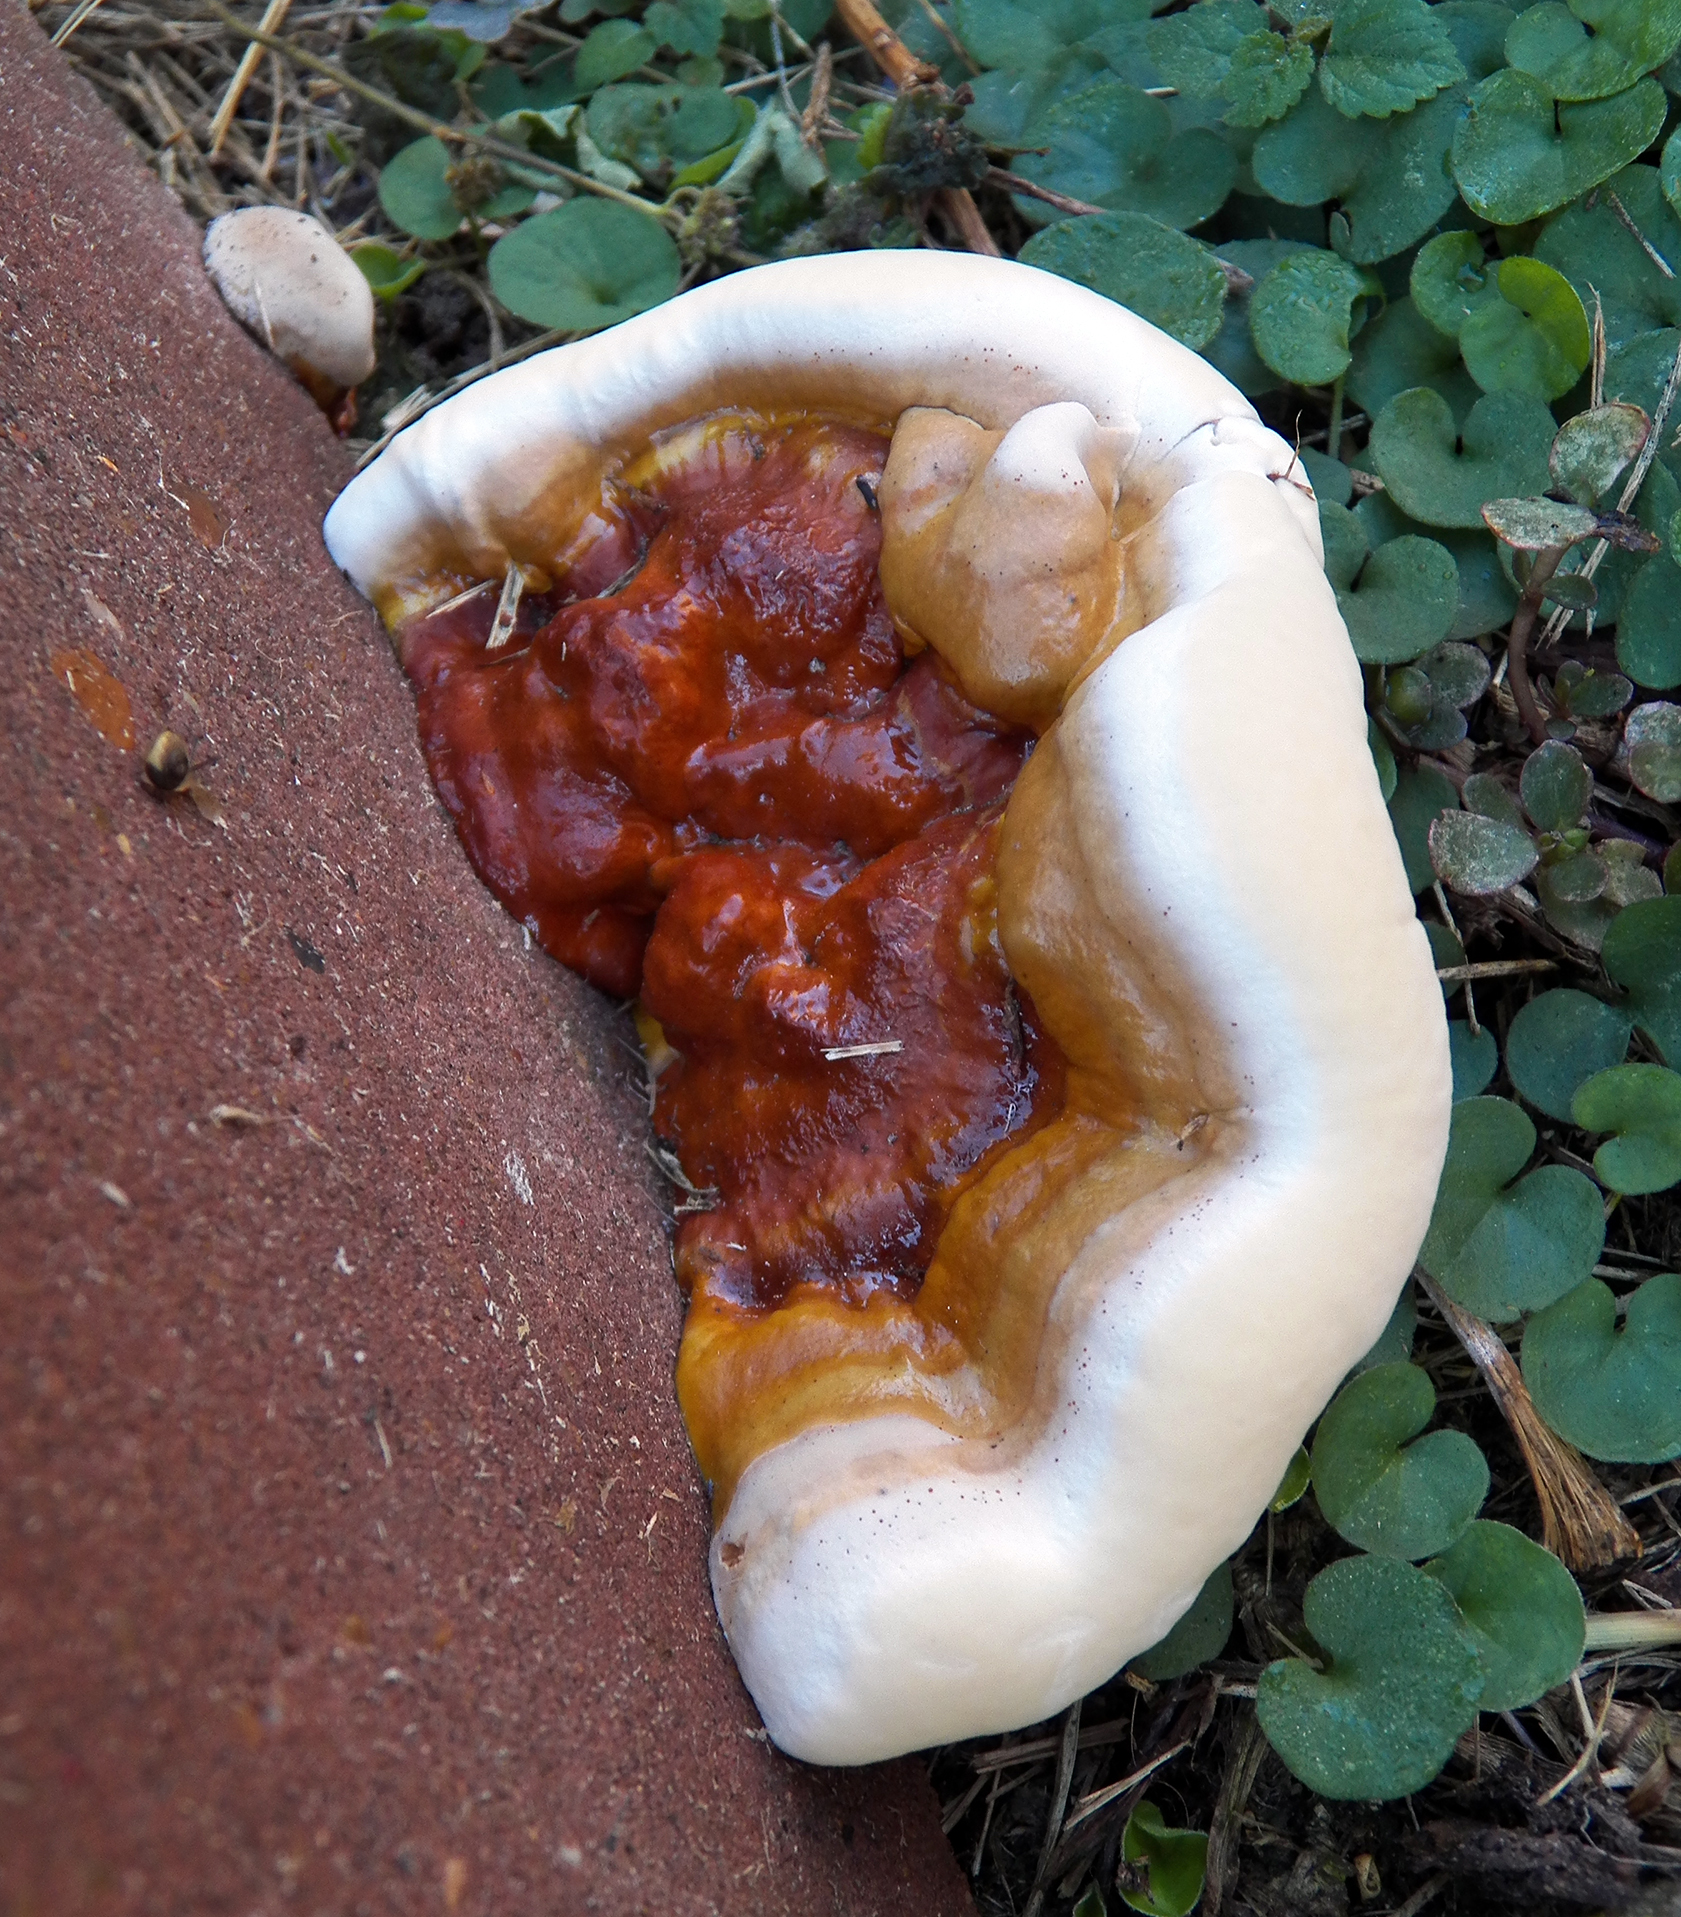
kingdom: Fungi
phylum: Basidiomycota
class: Agaricomycetes
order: Polyporales
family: Polyporaceae
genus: Ganoderma
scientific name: Ganoderma resinaceum
